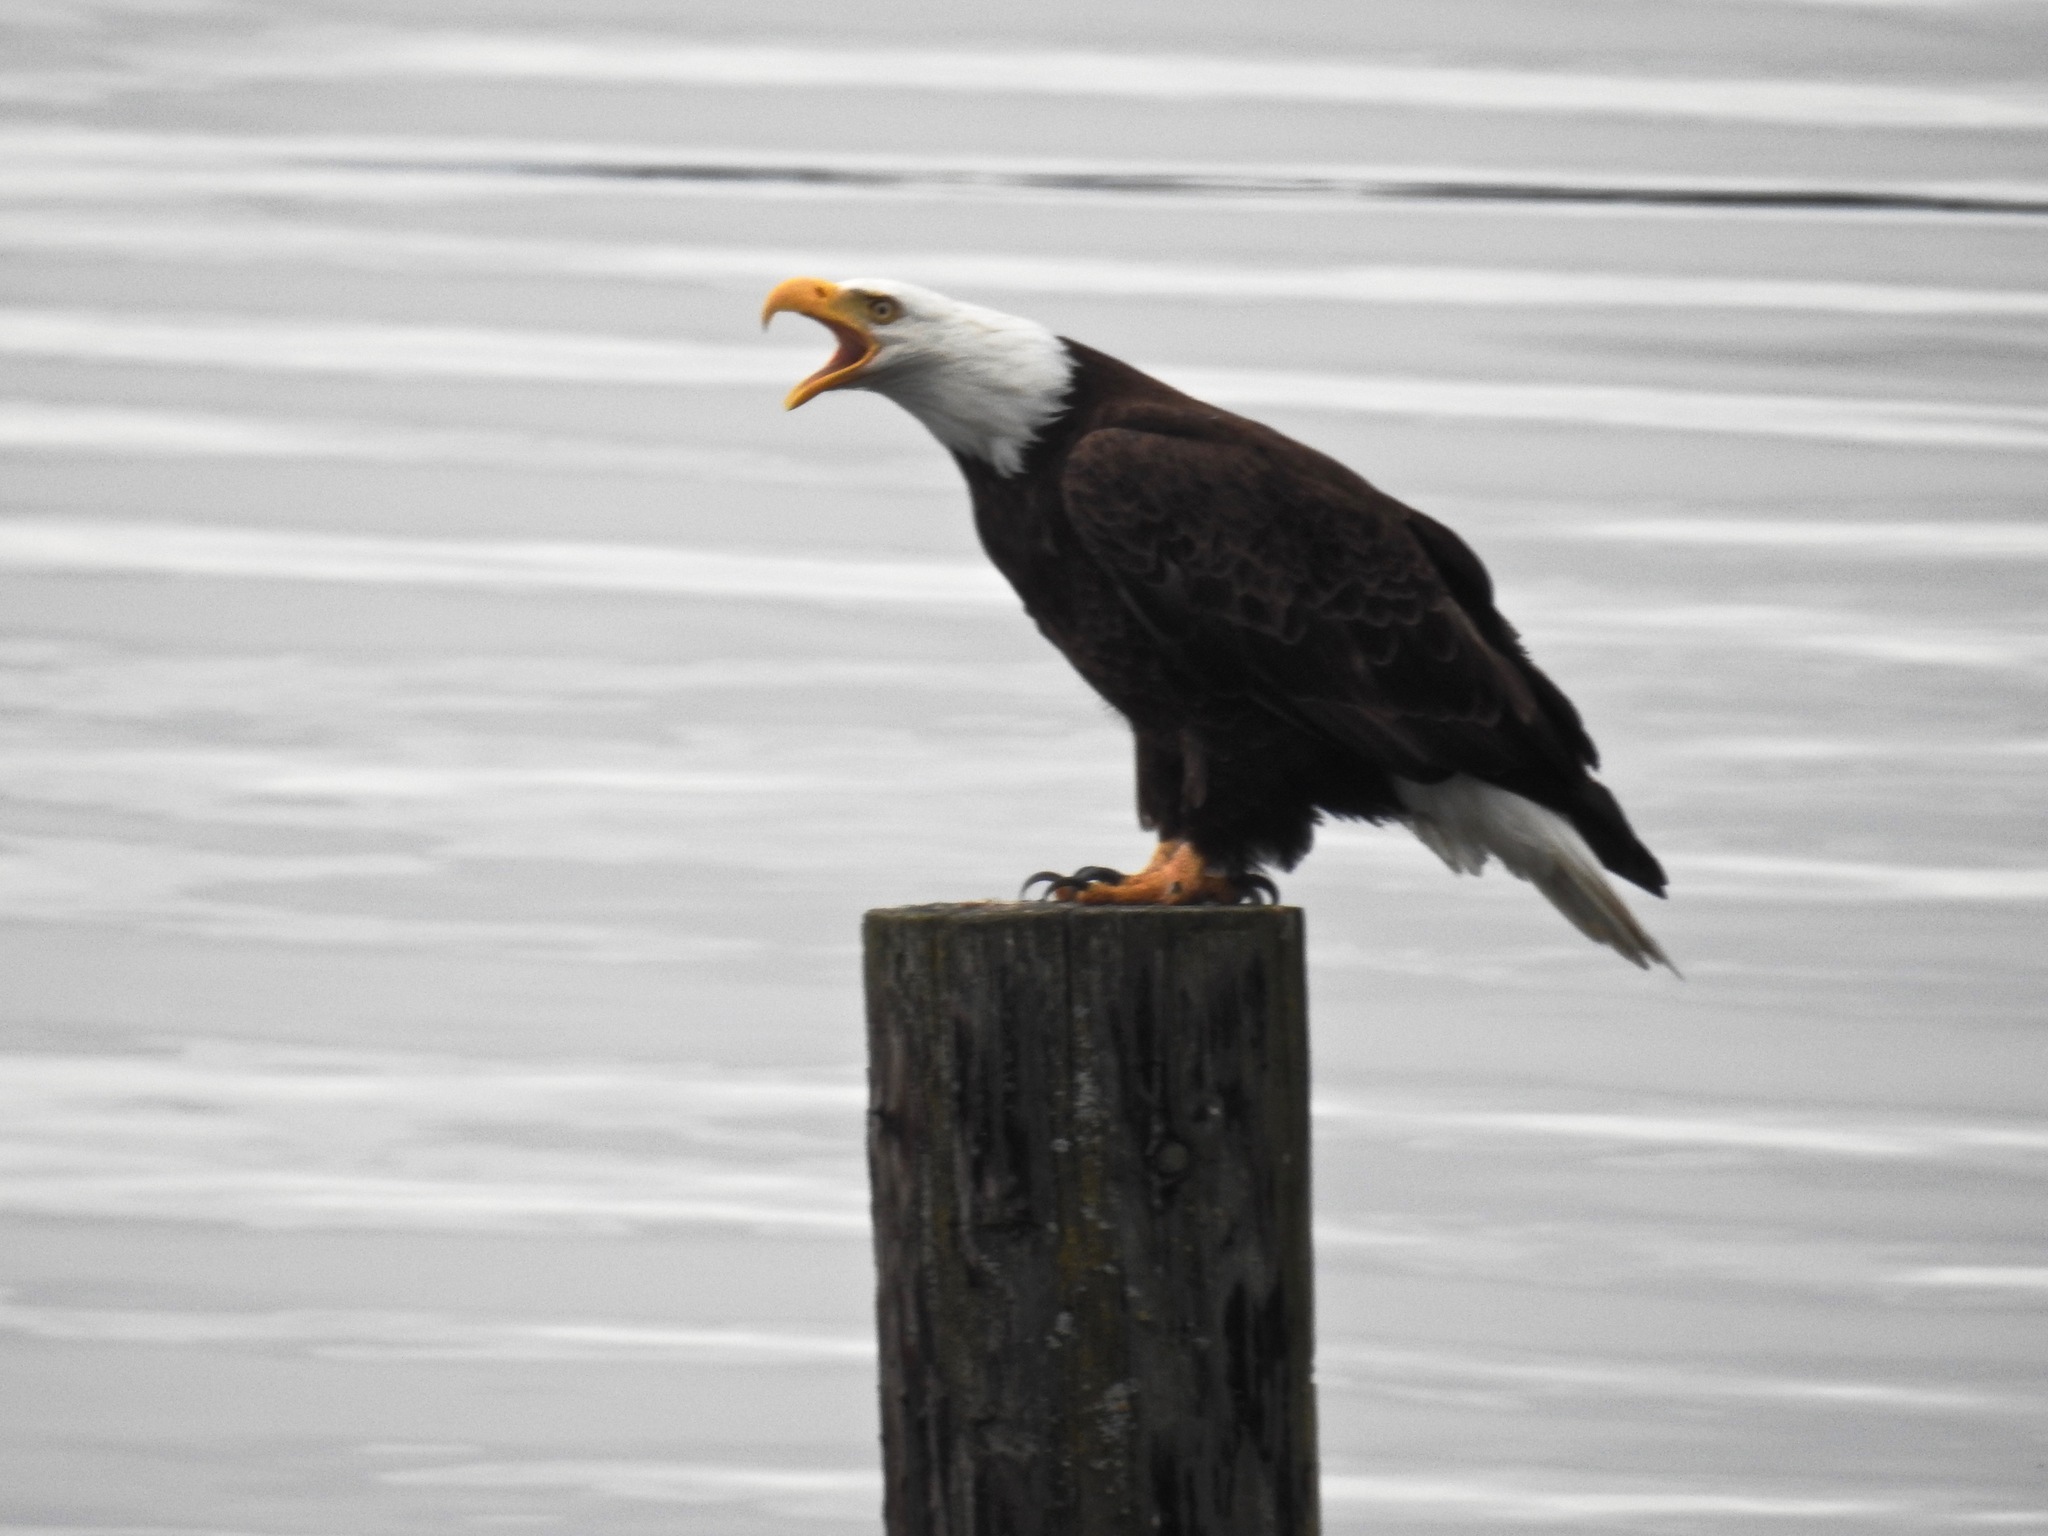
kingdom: Animalia
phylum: Chordata
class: Aves
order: Accipitriformes
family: Accipitridae
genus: Haliaeetus
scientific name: Haliaeetus leucocephalus
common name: Bald eagle
